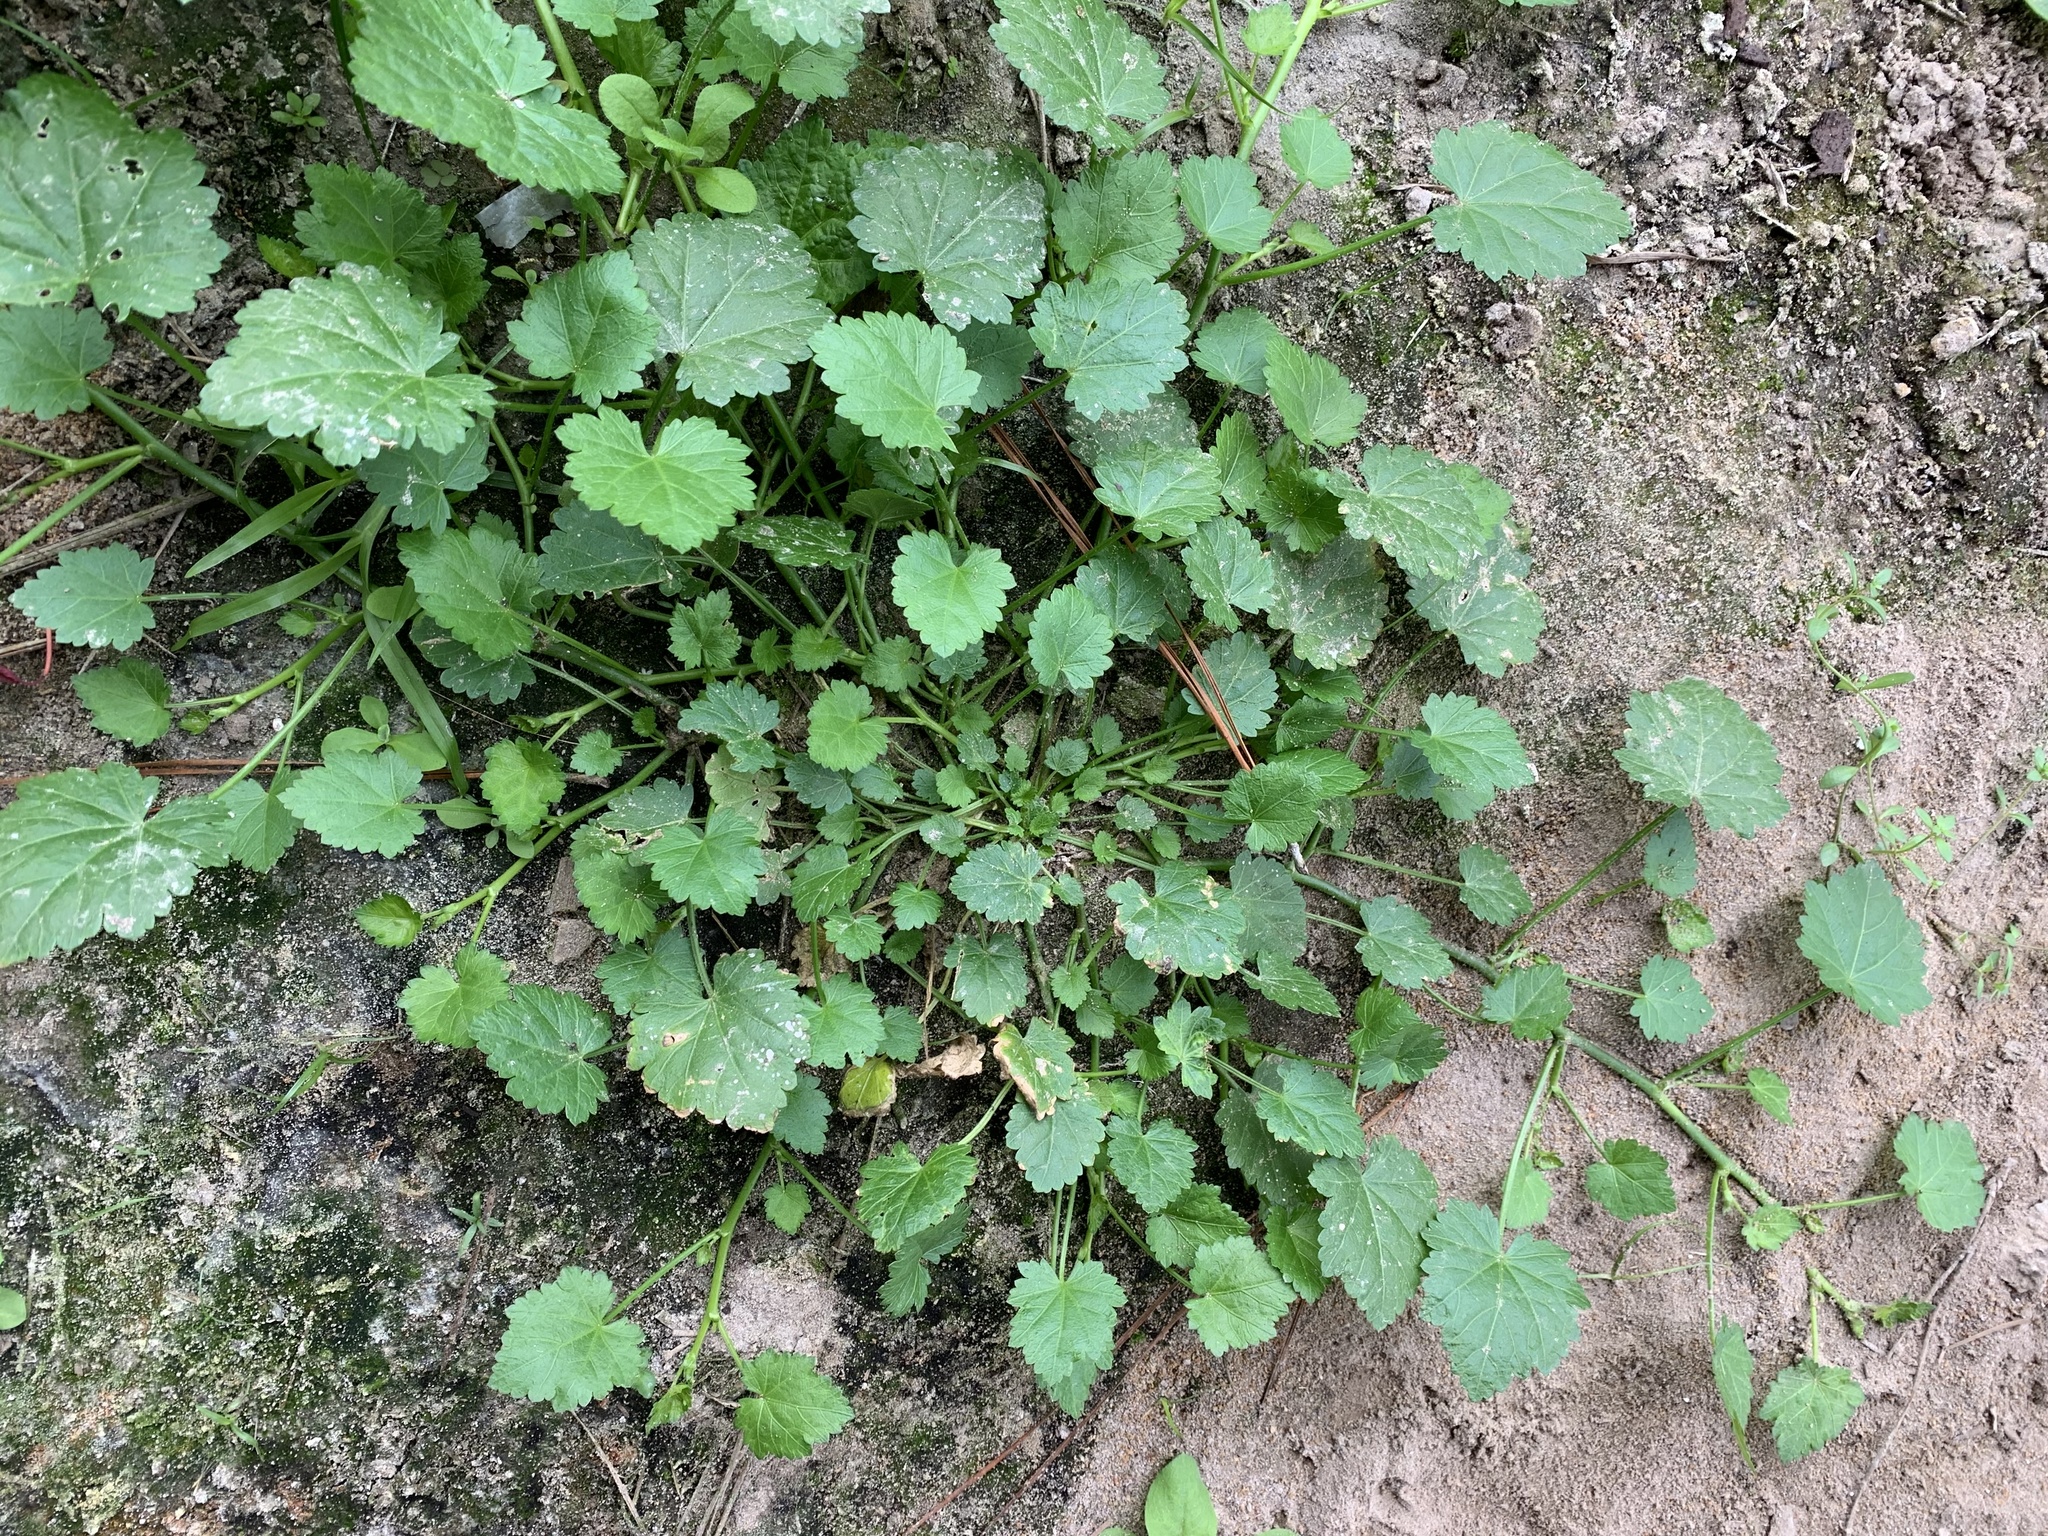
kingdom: Plantae
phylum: Tracheophyta
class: Magnoliopsida
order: Malvales
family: Malvaceae
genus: Modiola
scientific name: Modiola caroliniana
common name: Carolina bristlemallow
